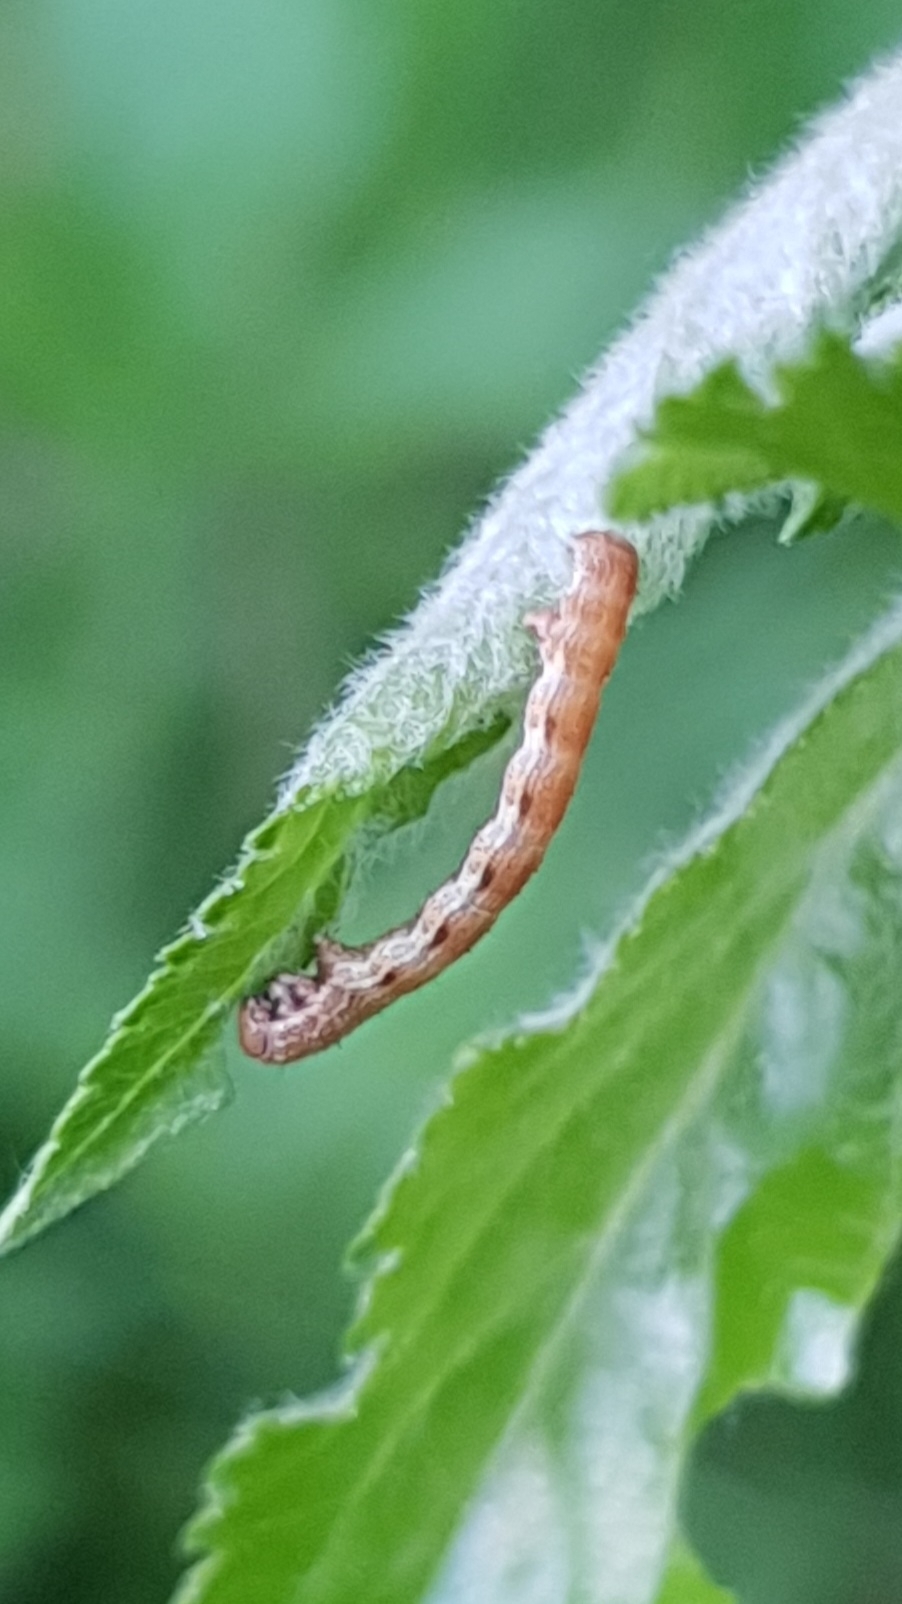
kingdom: Animalia
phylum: Arthropoda
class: Insecta
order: Lepidoptera
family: Geometridae
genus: Erannis
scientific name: Erannis defoliaria
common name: Mottled umber
